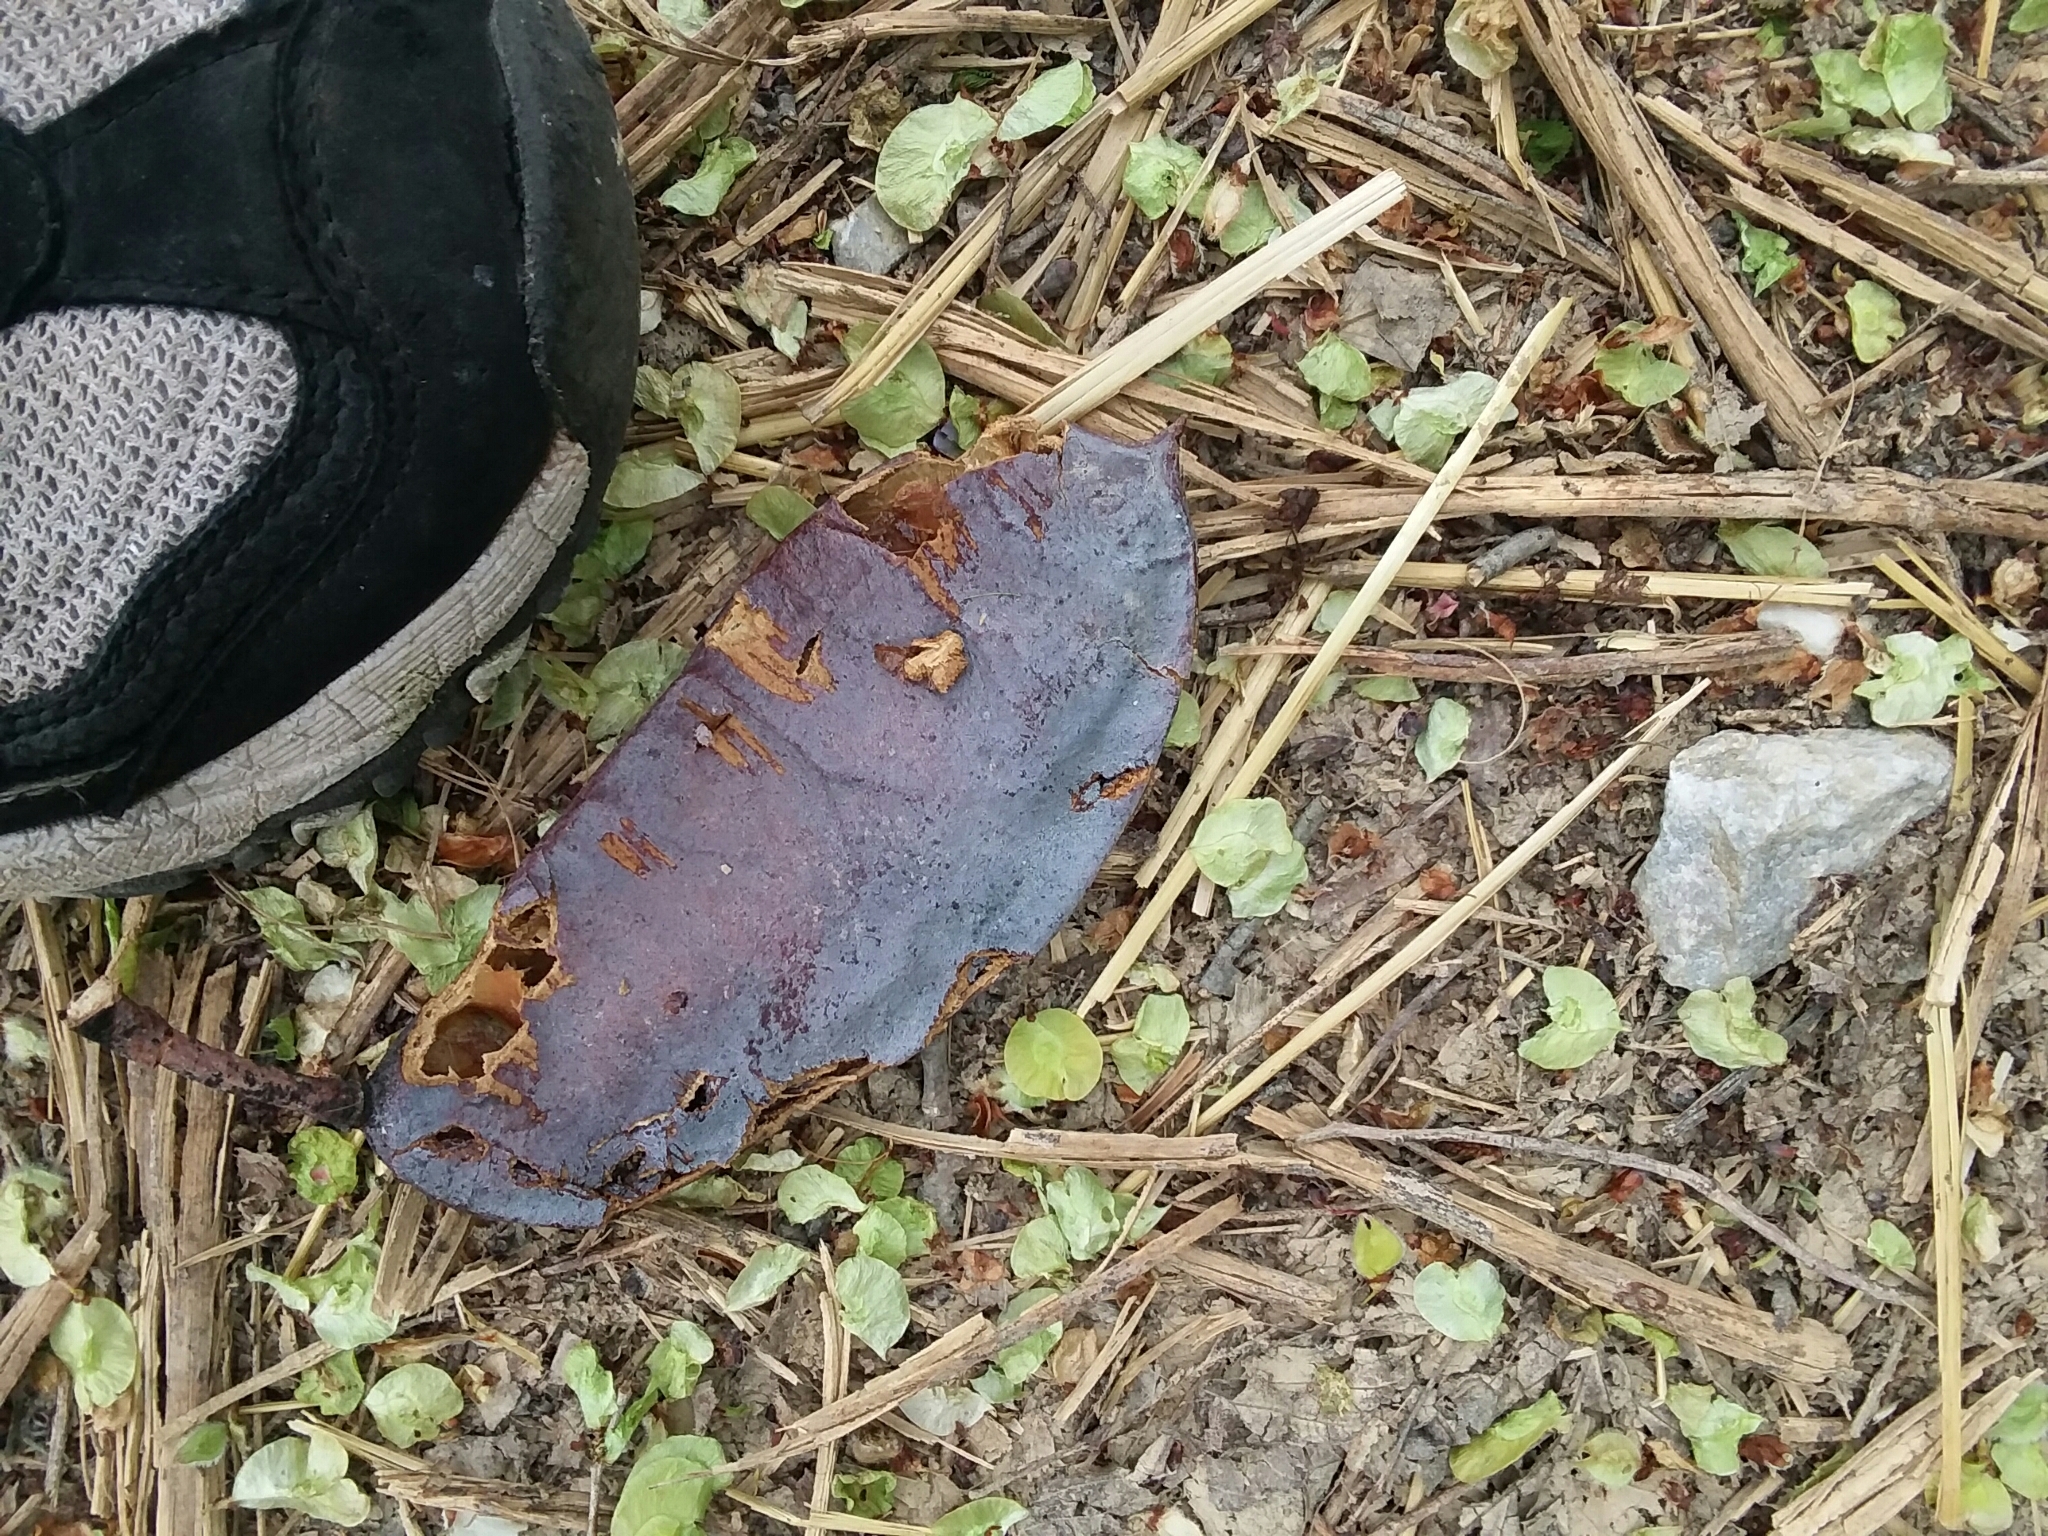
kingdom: Plantae
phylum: Tracheophyta
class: Magnoliopsida
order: Fabales
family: Fabaceae
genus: Gymnocladus
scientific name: Gymnocladus dioicus
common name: Kentucky coffee-tree
